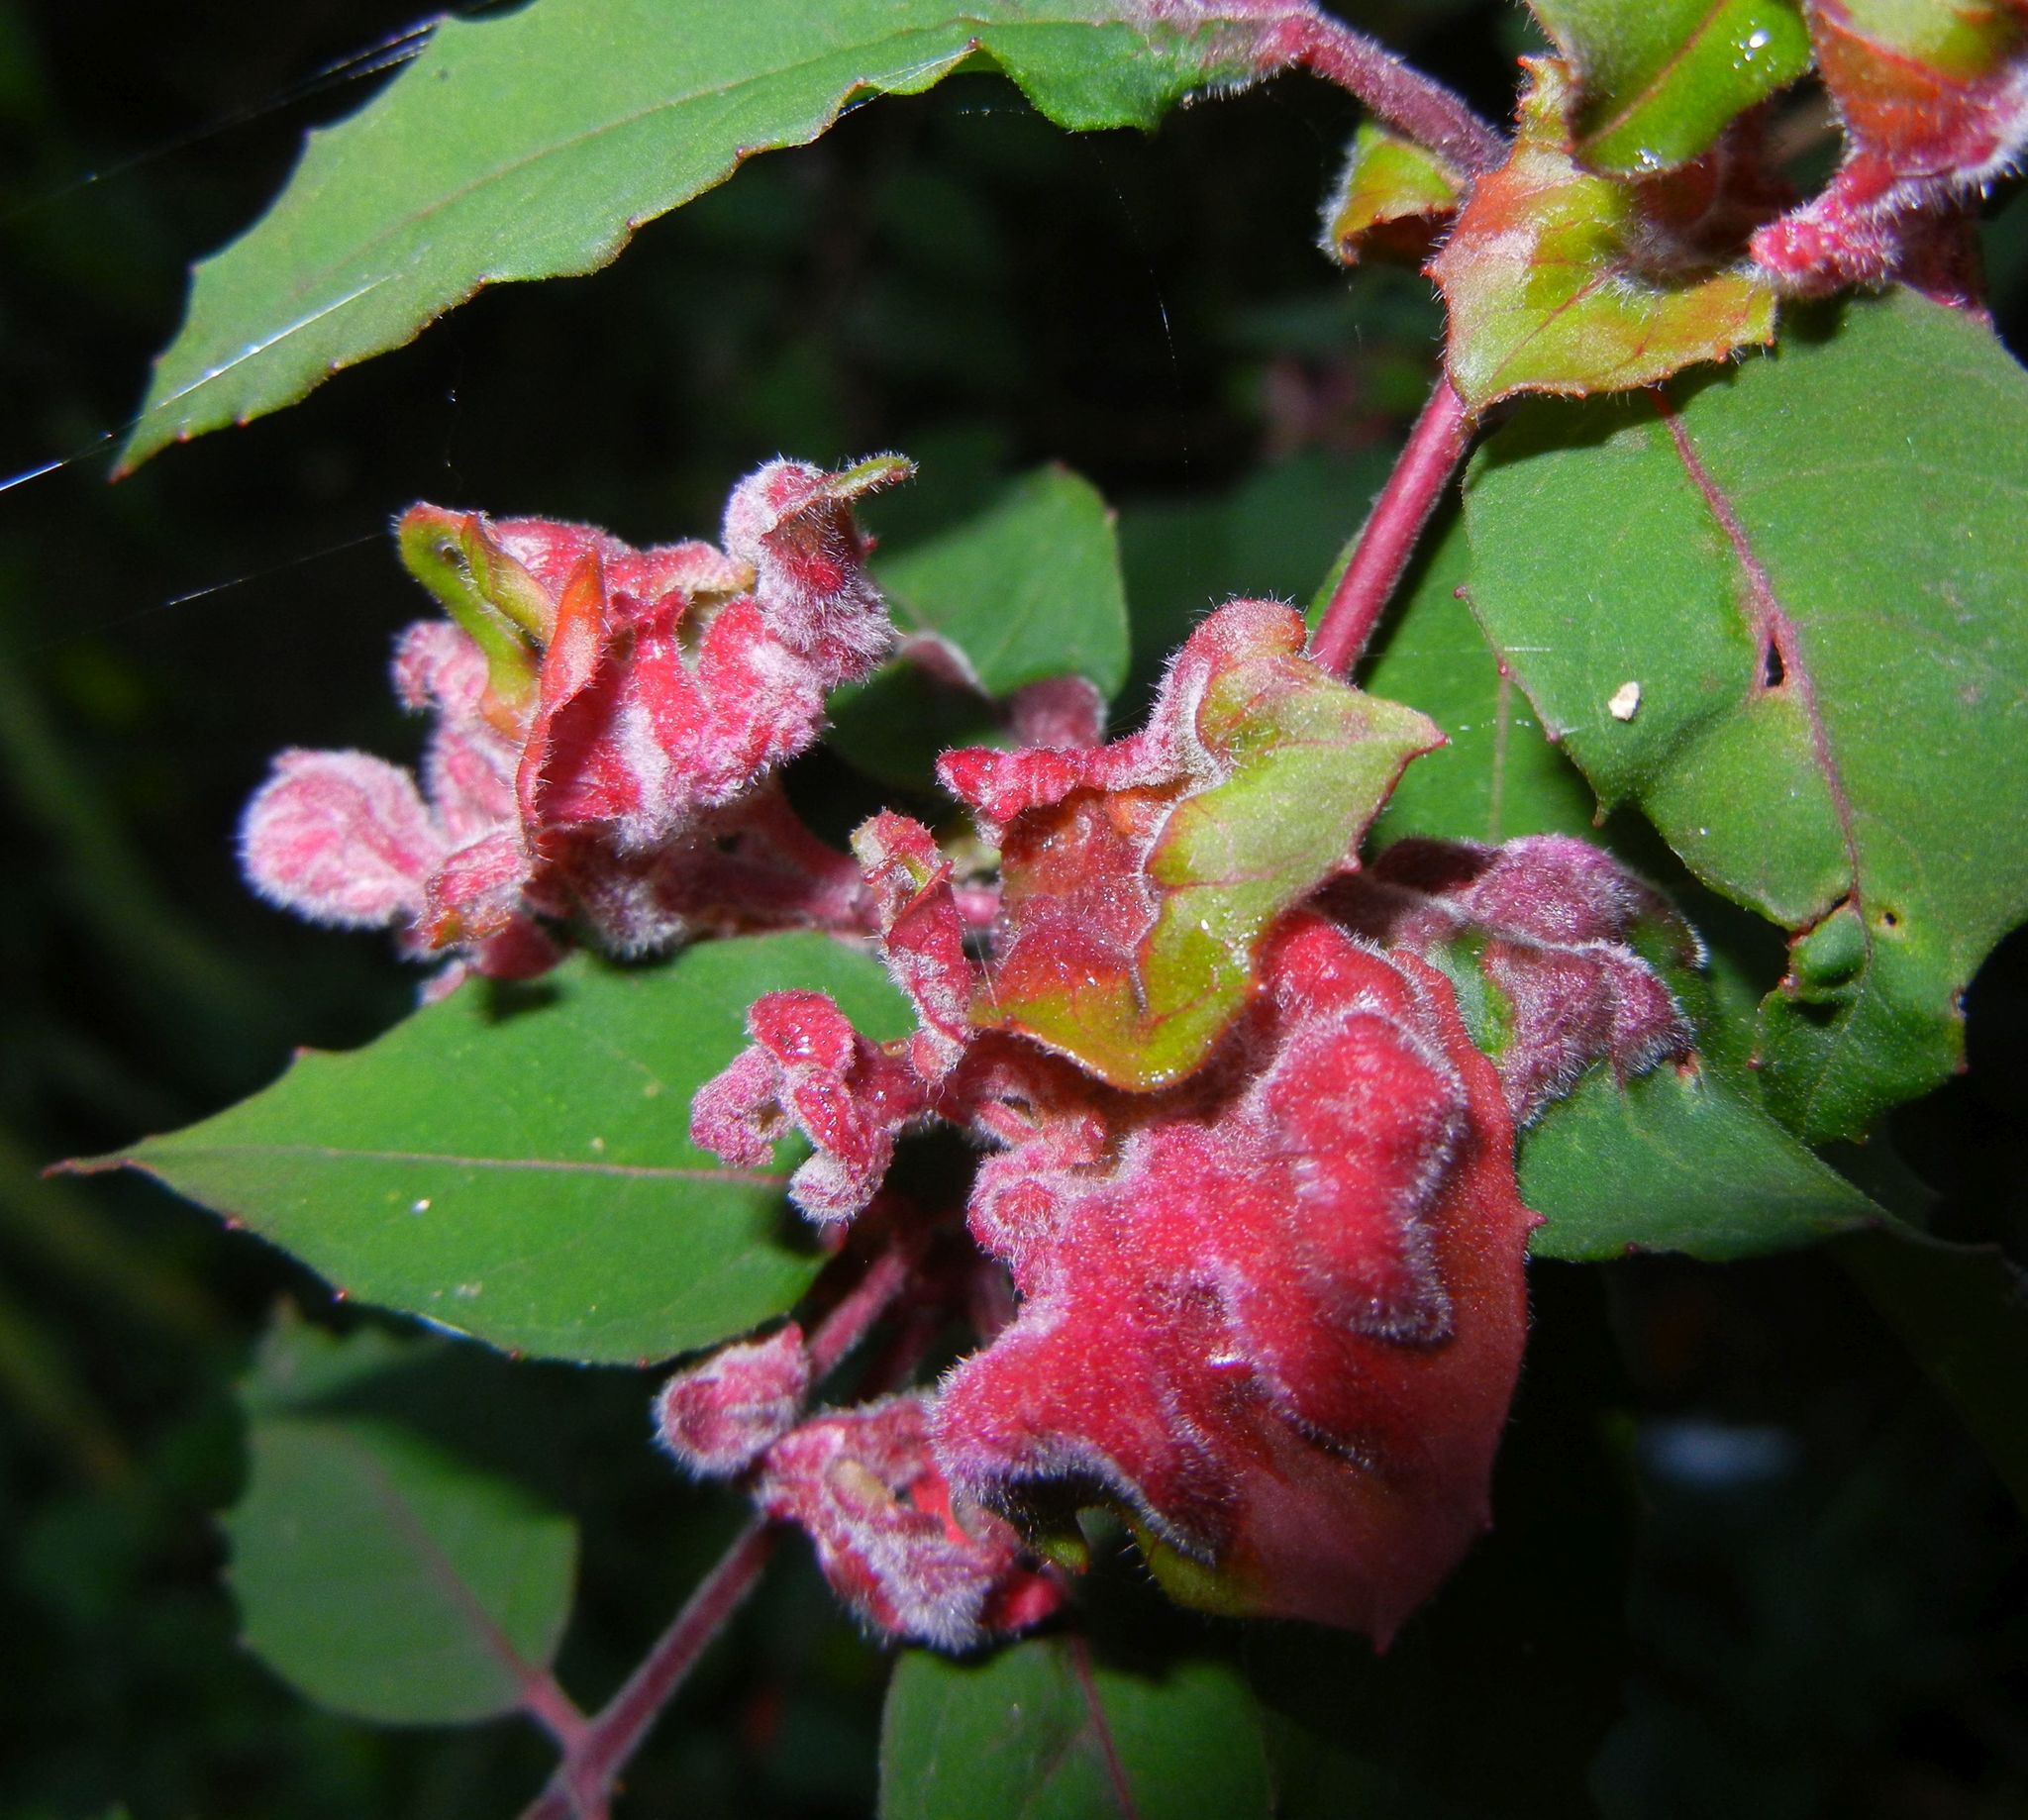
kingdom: Animalia
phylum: Arthropoda
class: Arachnida
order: Trombidiformes
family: Eriophyidae
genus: Aculops
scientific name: Aculops fuchsiae
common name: Fuchsia gall mite
